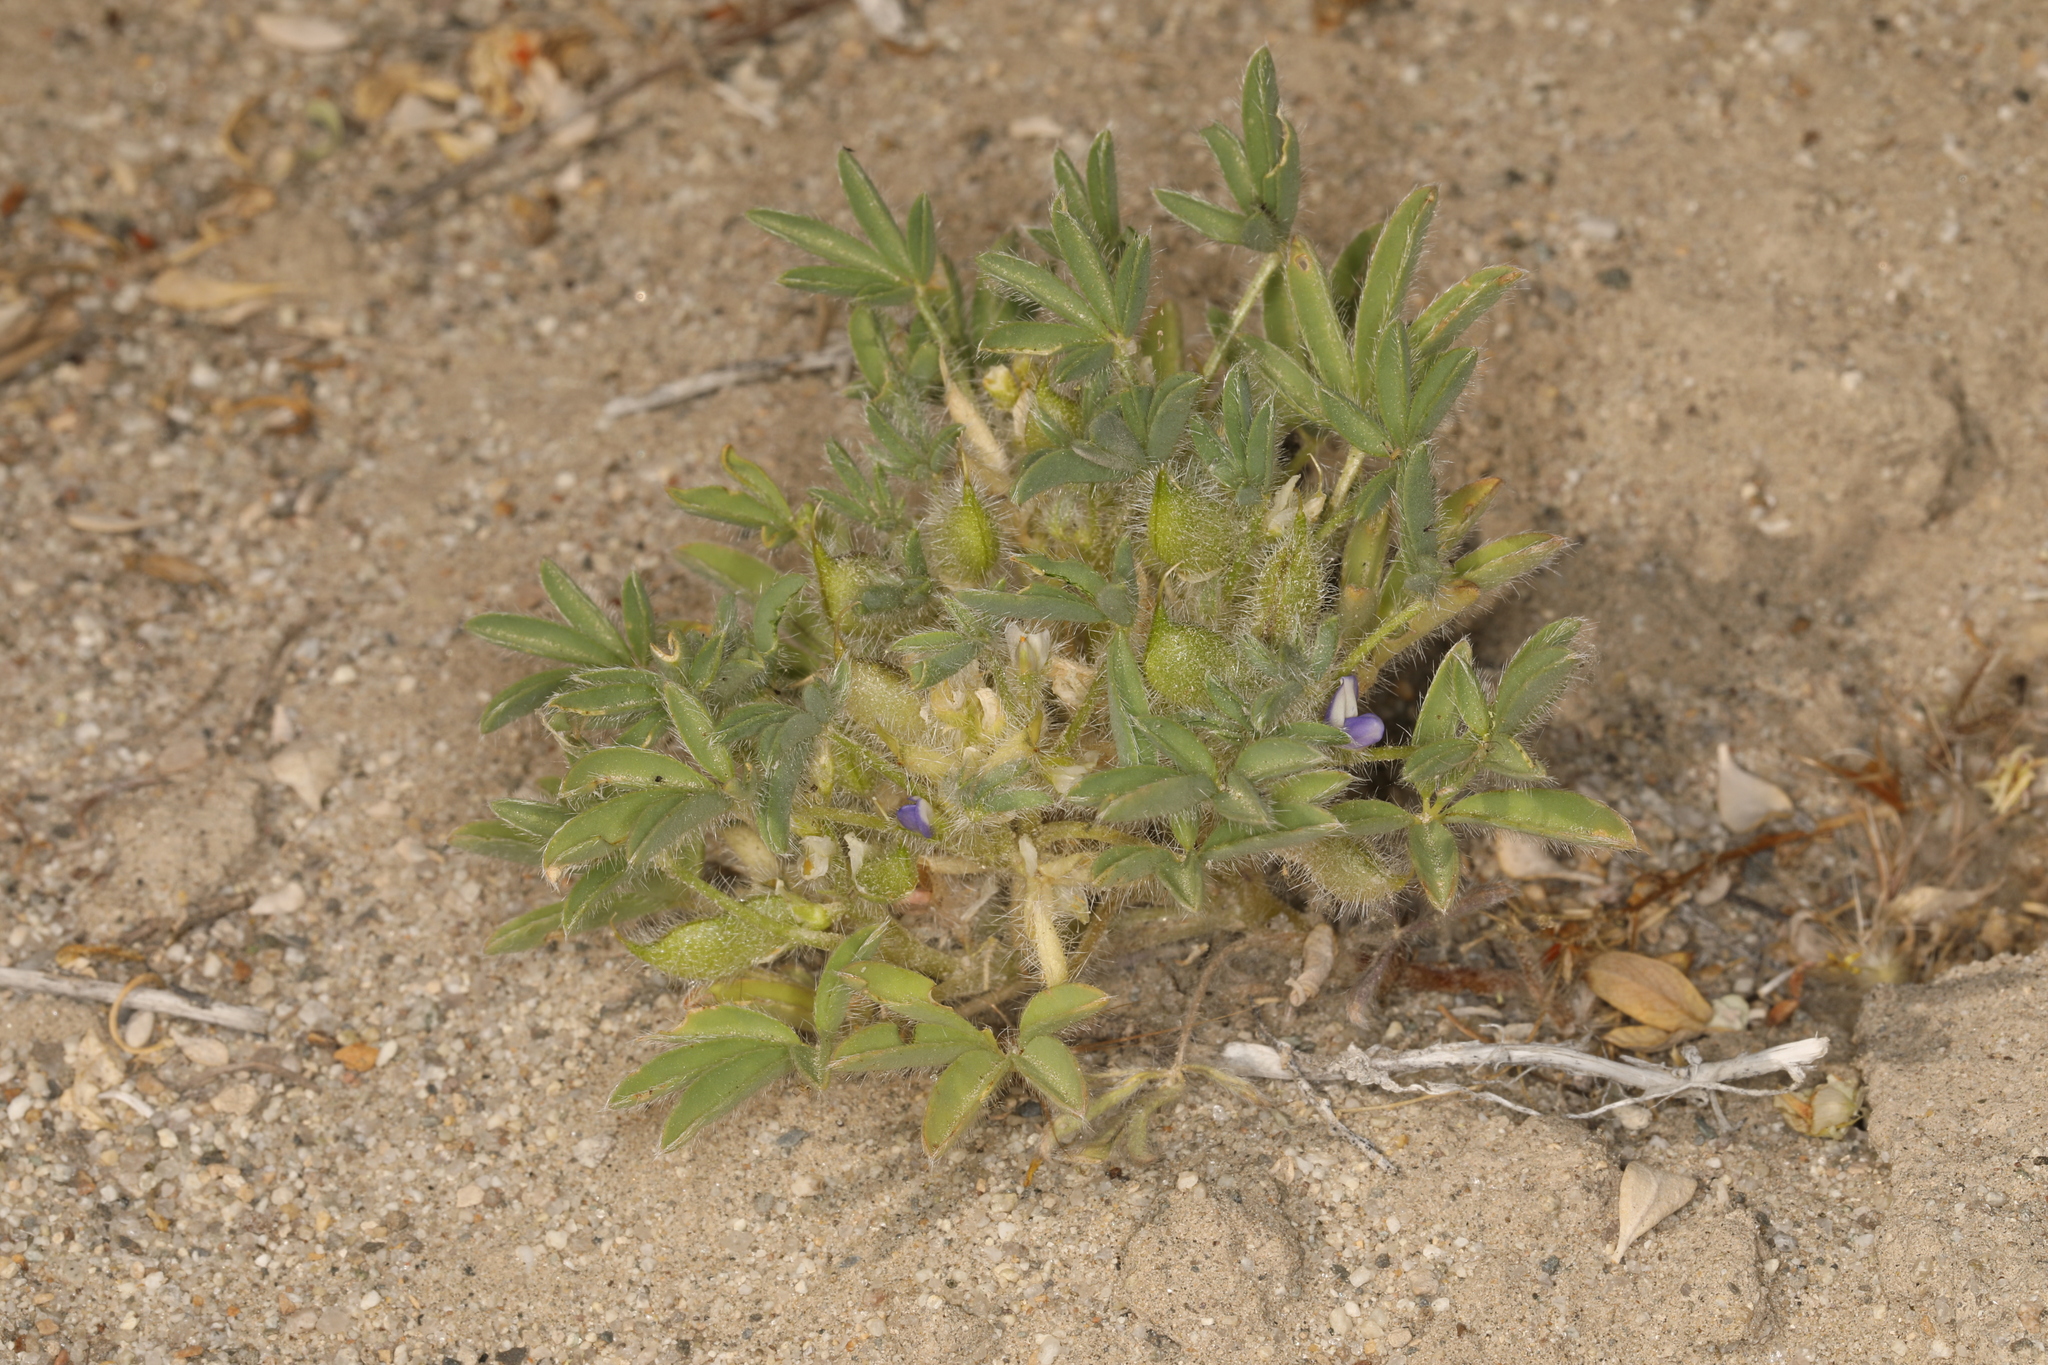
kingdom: Plantae
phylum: Tracheophyta
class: Magnoliopsida
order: Fabales
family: Fabaceae
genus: Lupinus
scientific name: Lupinus pusillus
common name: Low lupine
